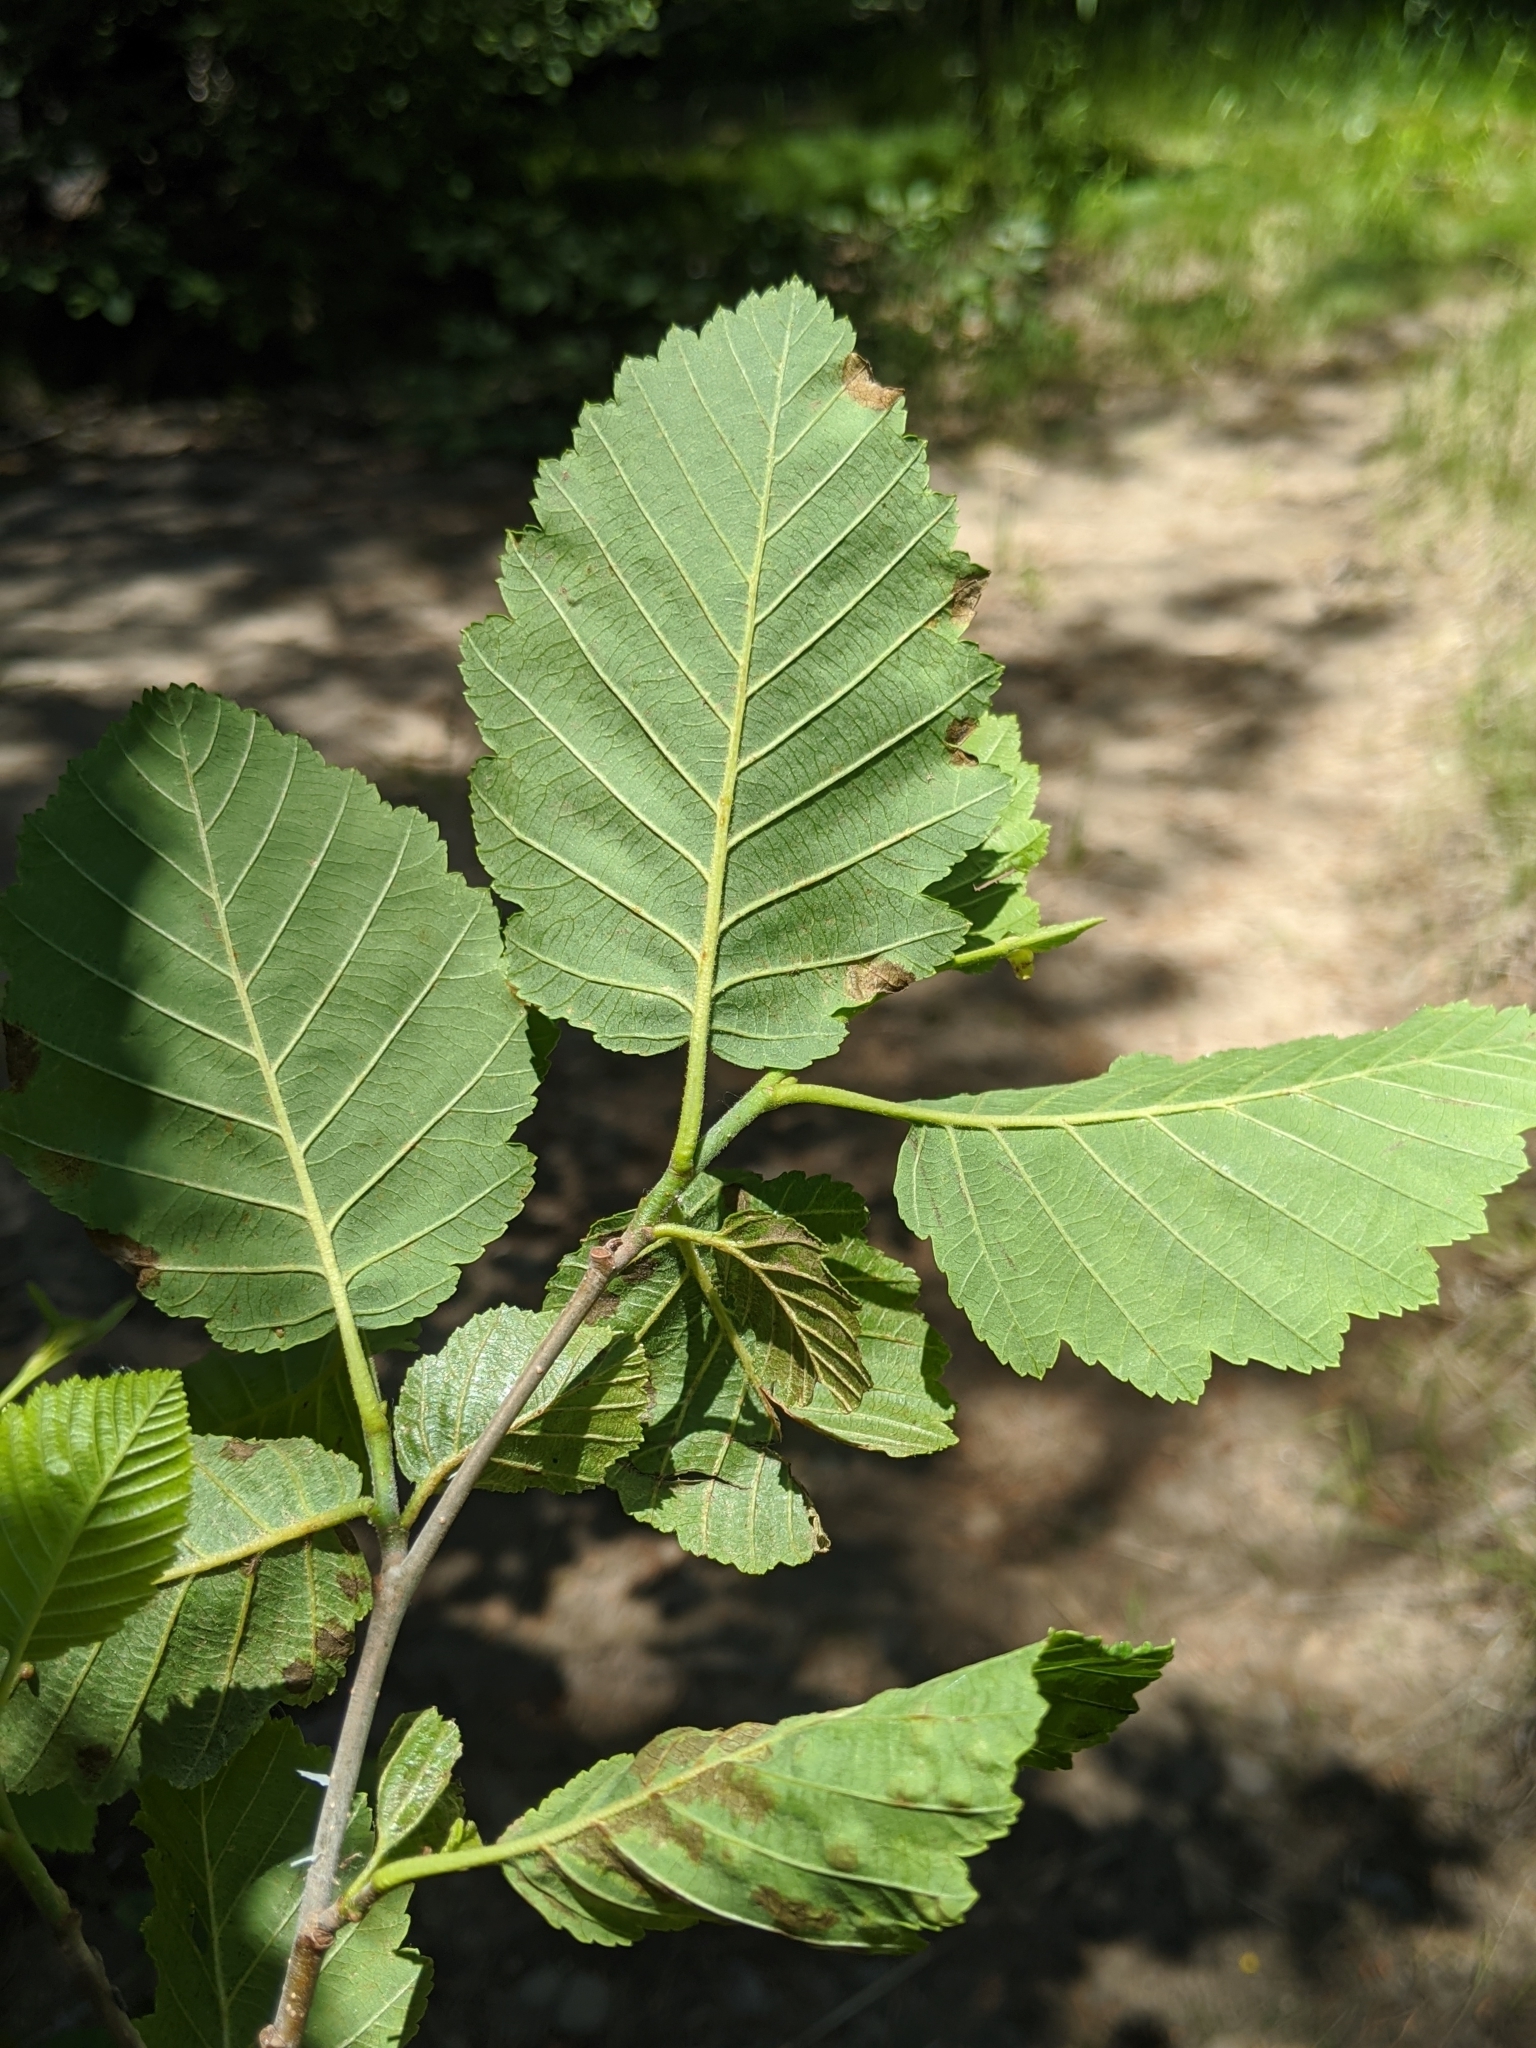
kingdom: Plantae
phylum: Tracheophyta
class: Magnoliopsida
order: Fagales
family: Betulaceae
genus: Alnus
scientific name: Alnus incana
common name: Grey alder
